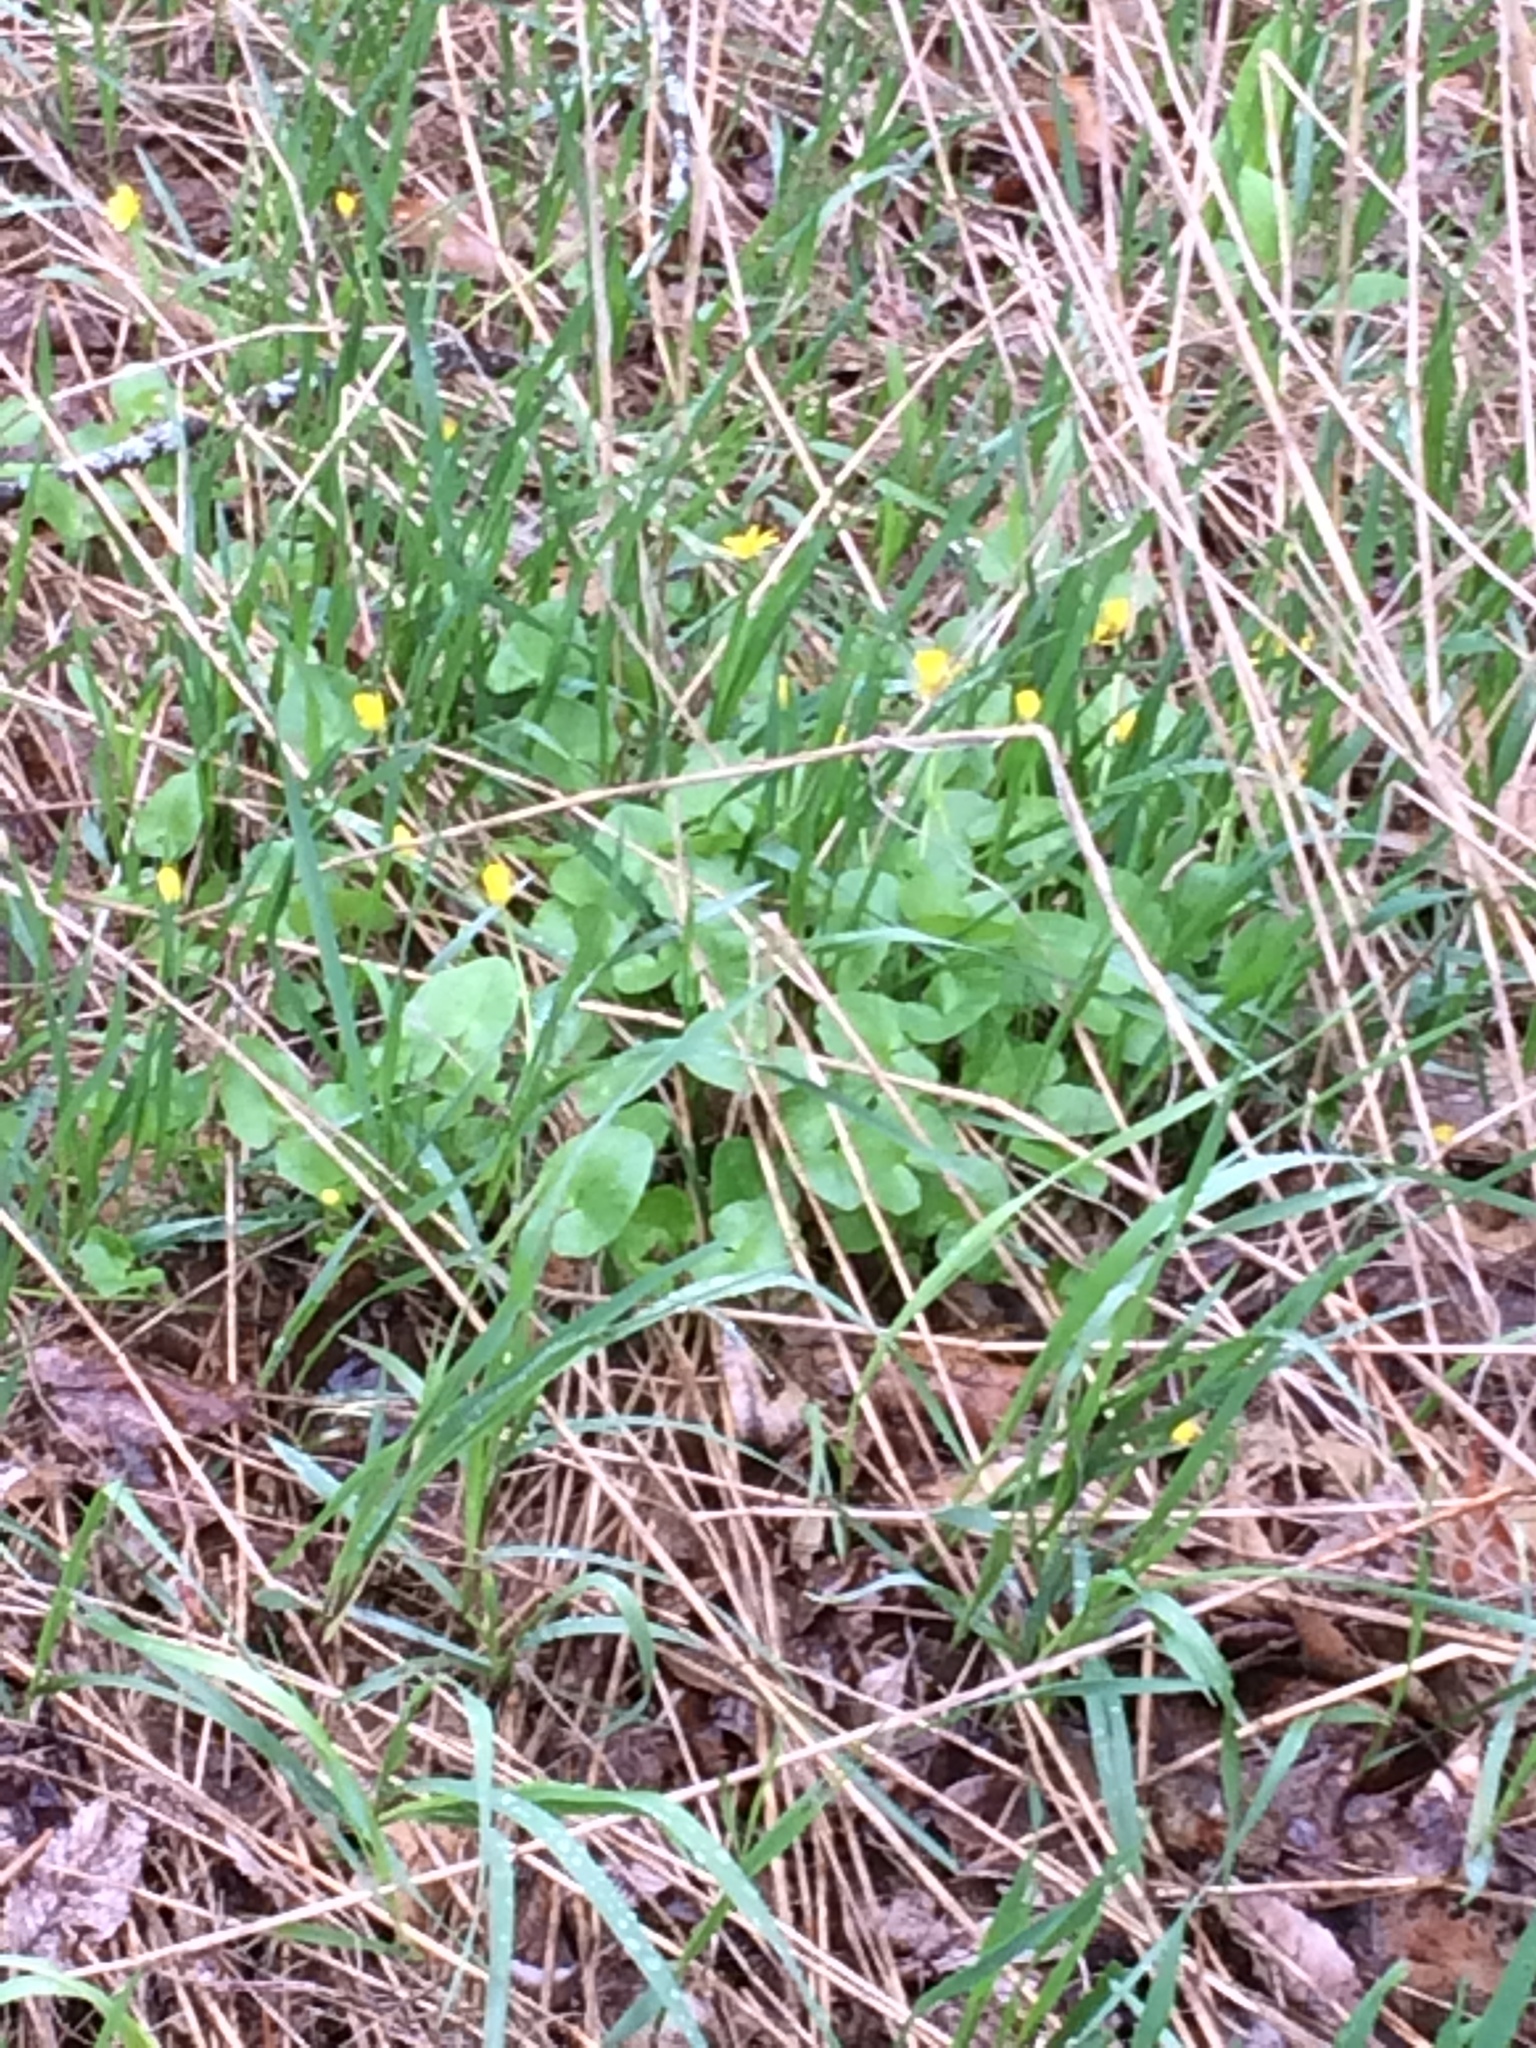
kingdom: Plantae
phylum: Tracheophyta
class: Magnoliopsida
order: Ranunculales
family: Ranunculaceae
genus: Ficaria
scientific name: Ficaria verna
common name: Lesser celandine
